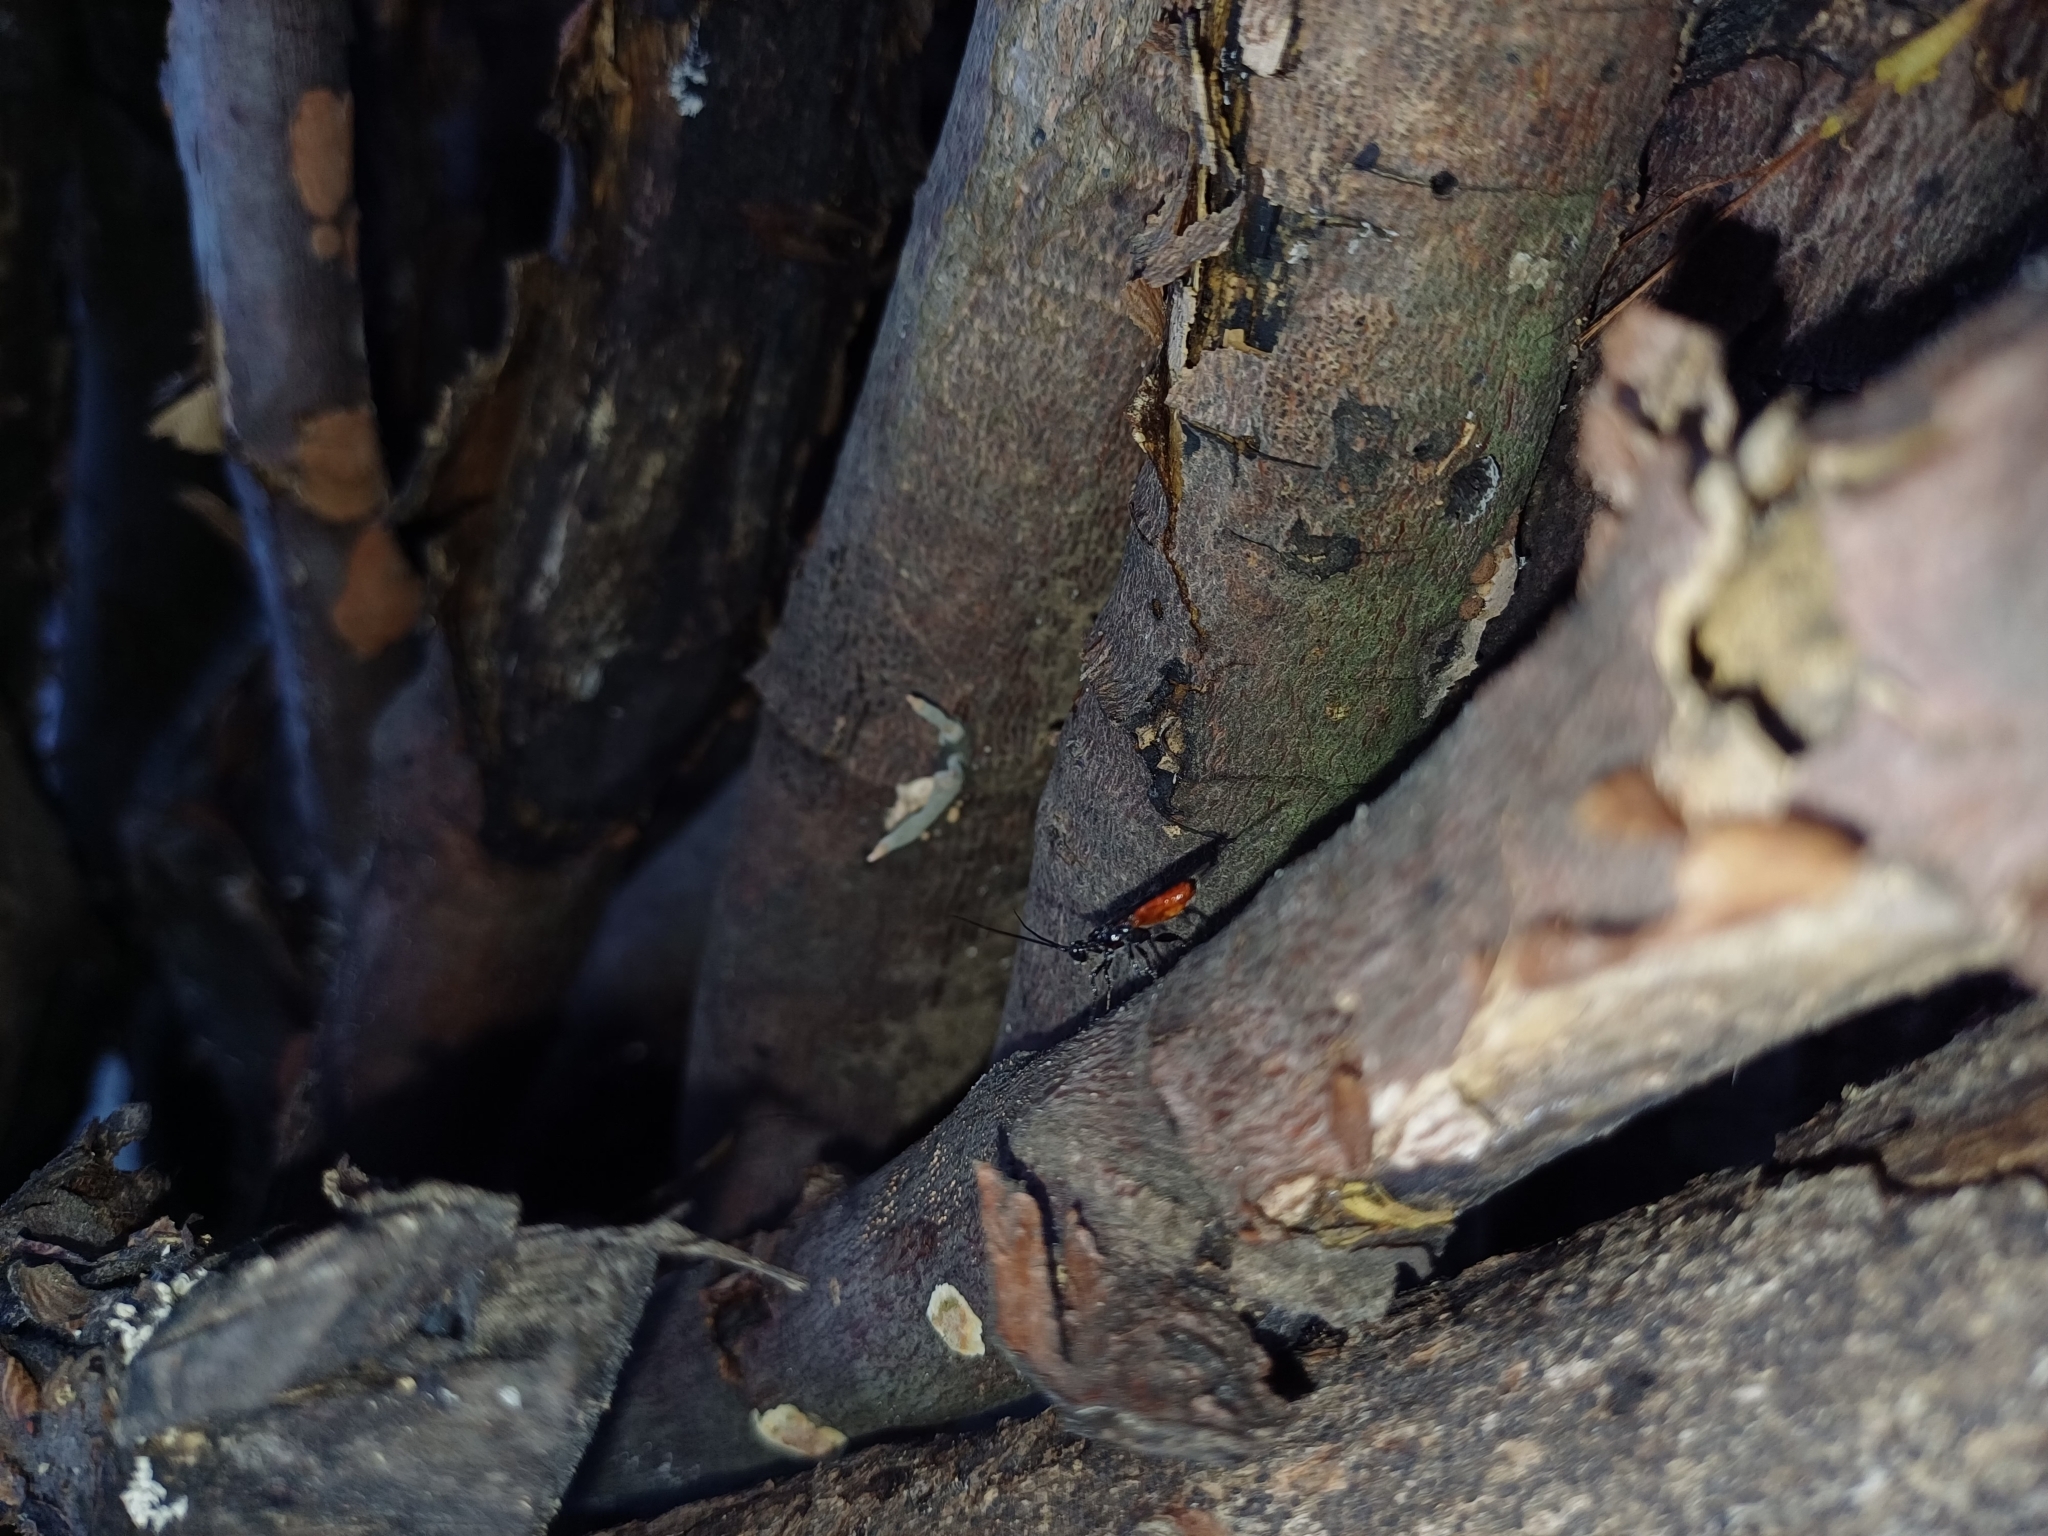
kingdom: Animalia
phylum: Arthropoda
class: Insecta
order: Hymenoptera
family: Apidae
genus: Trigona
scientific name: Trigona fulviventris
